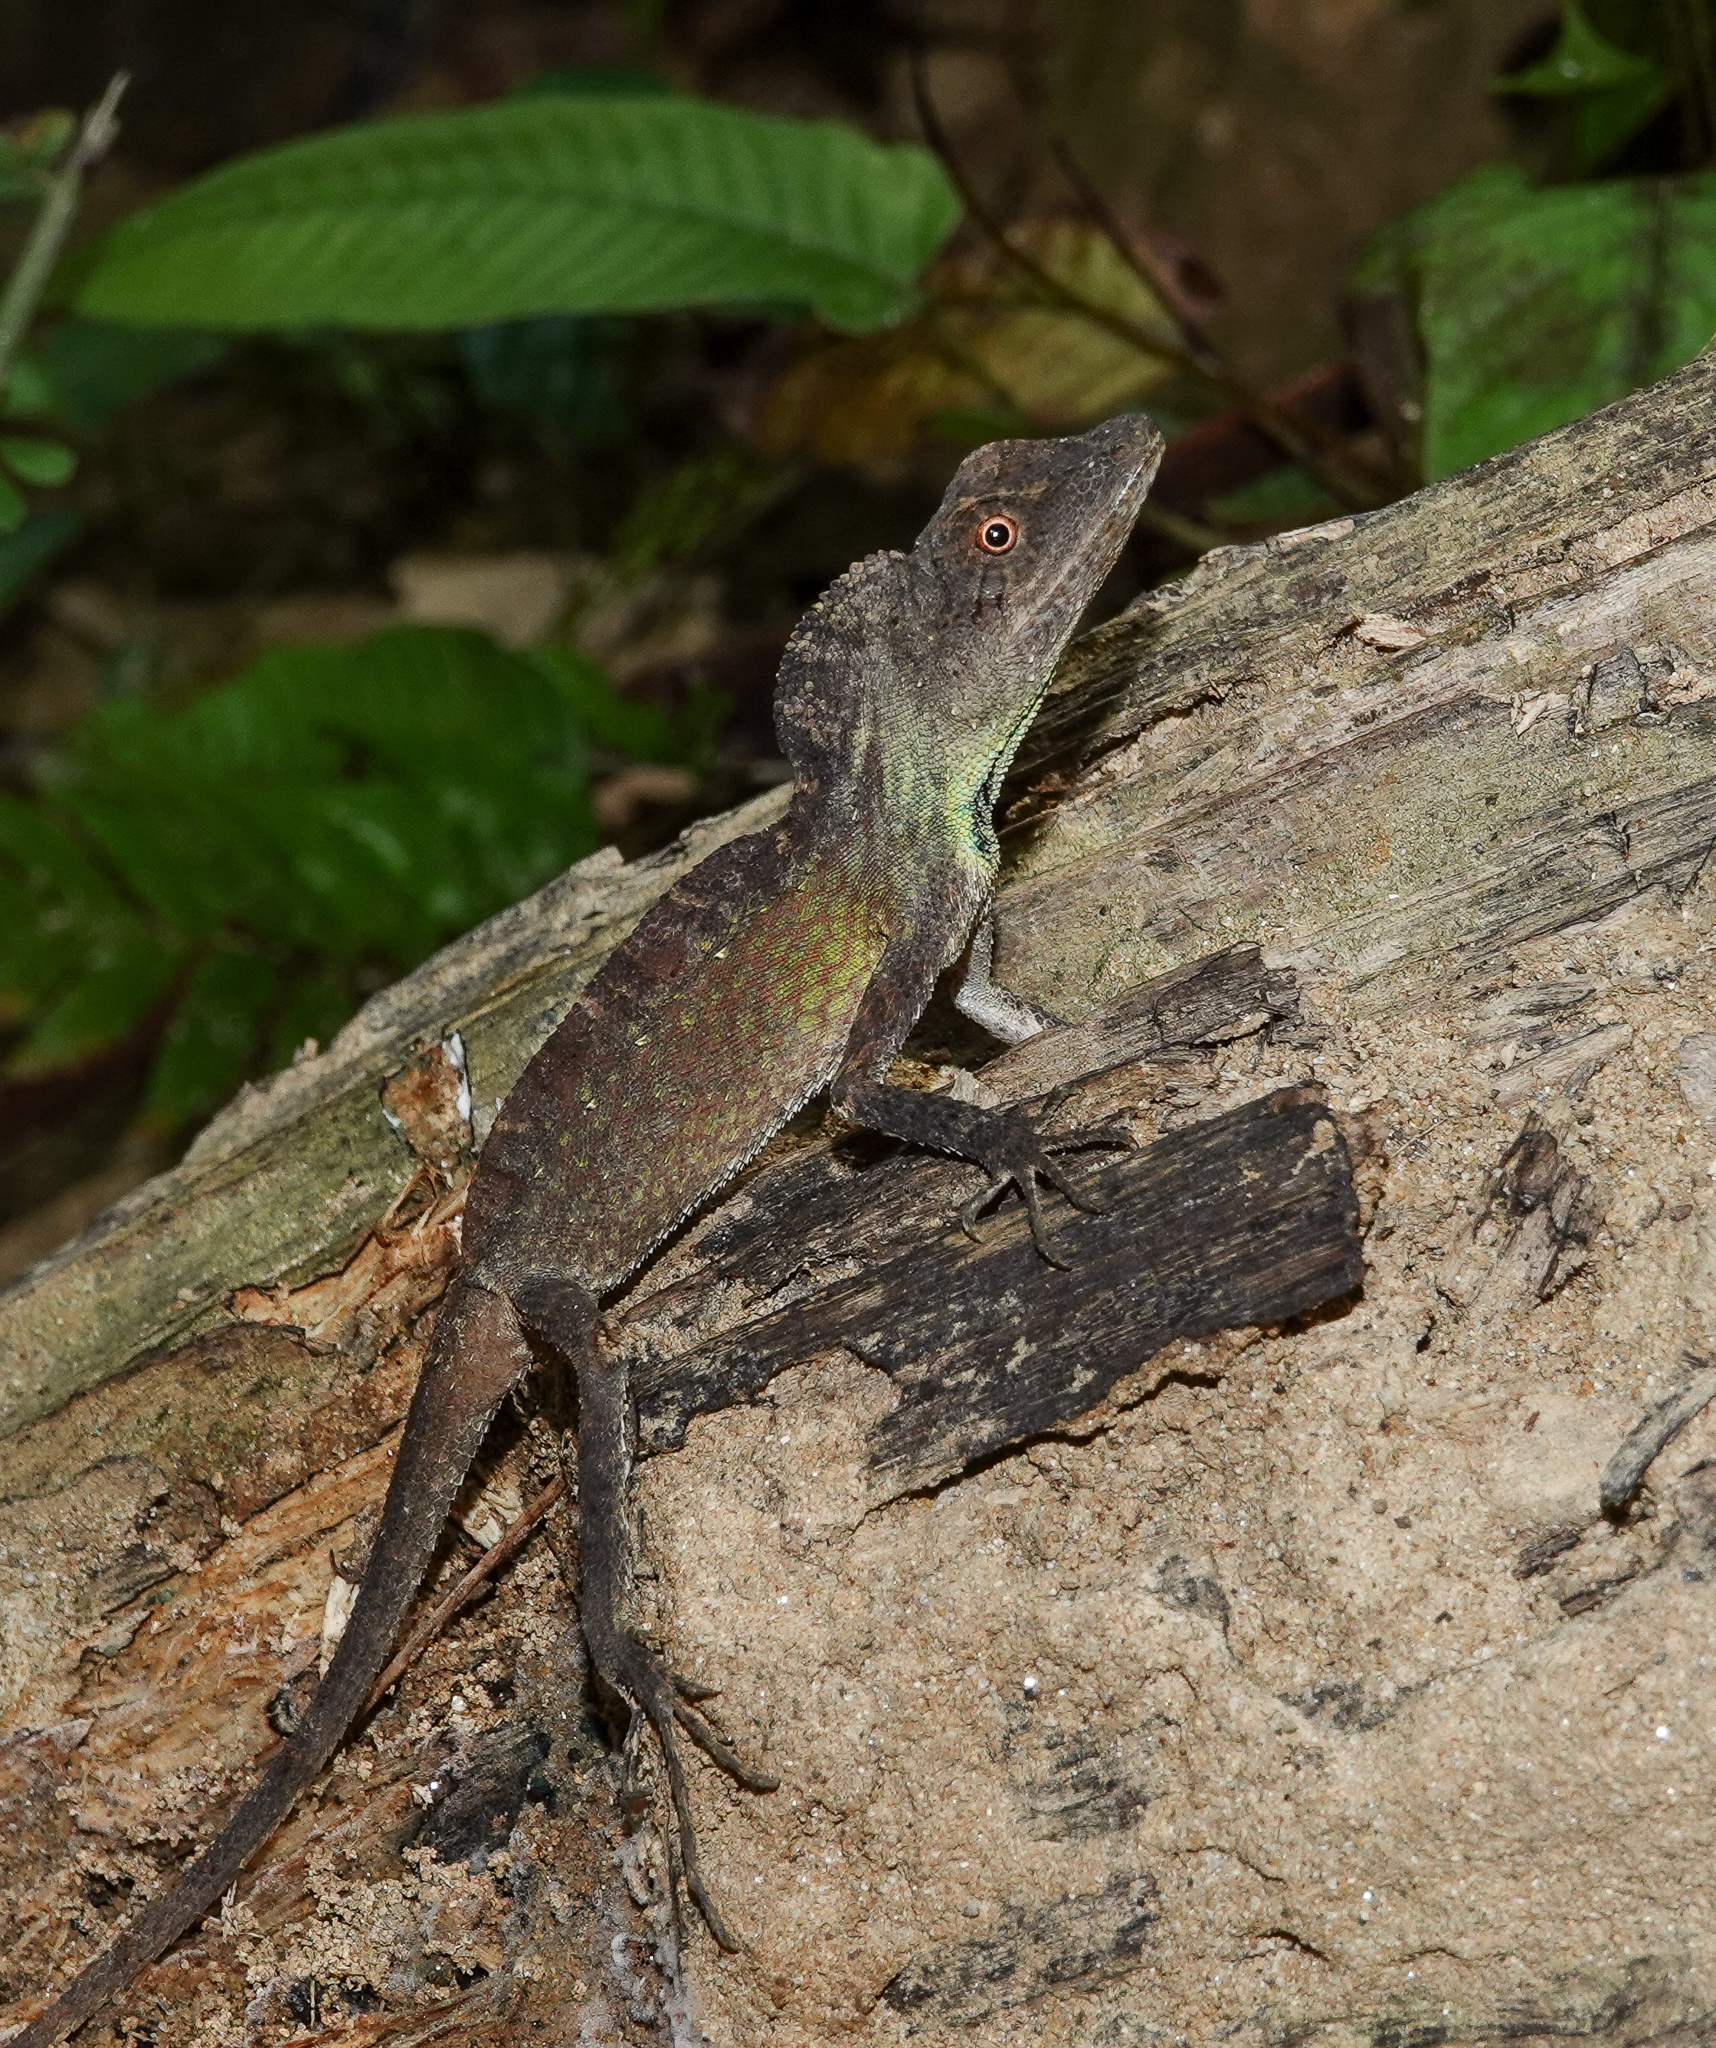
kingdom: Animalia
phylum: Chordata
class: Squamata
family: Agamidae
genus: Ptyctolaemus
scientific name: Ptyctolaemus gularis
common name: Green fan-throated lizard
